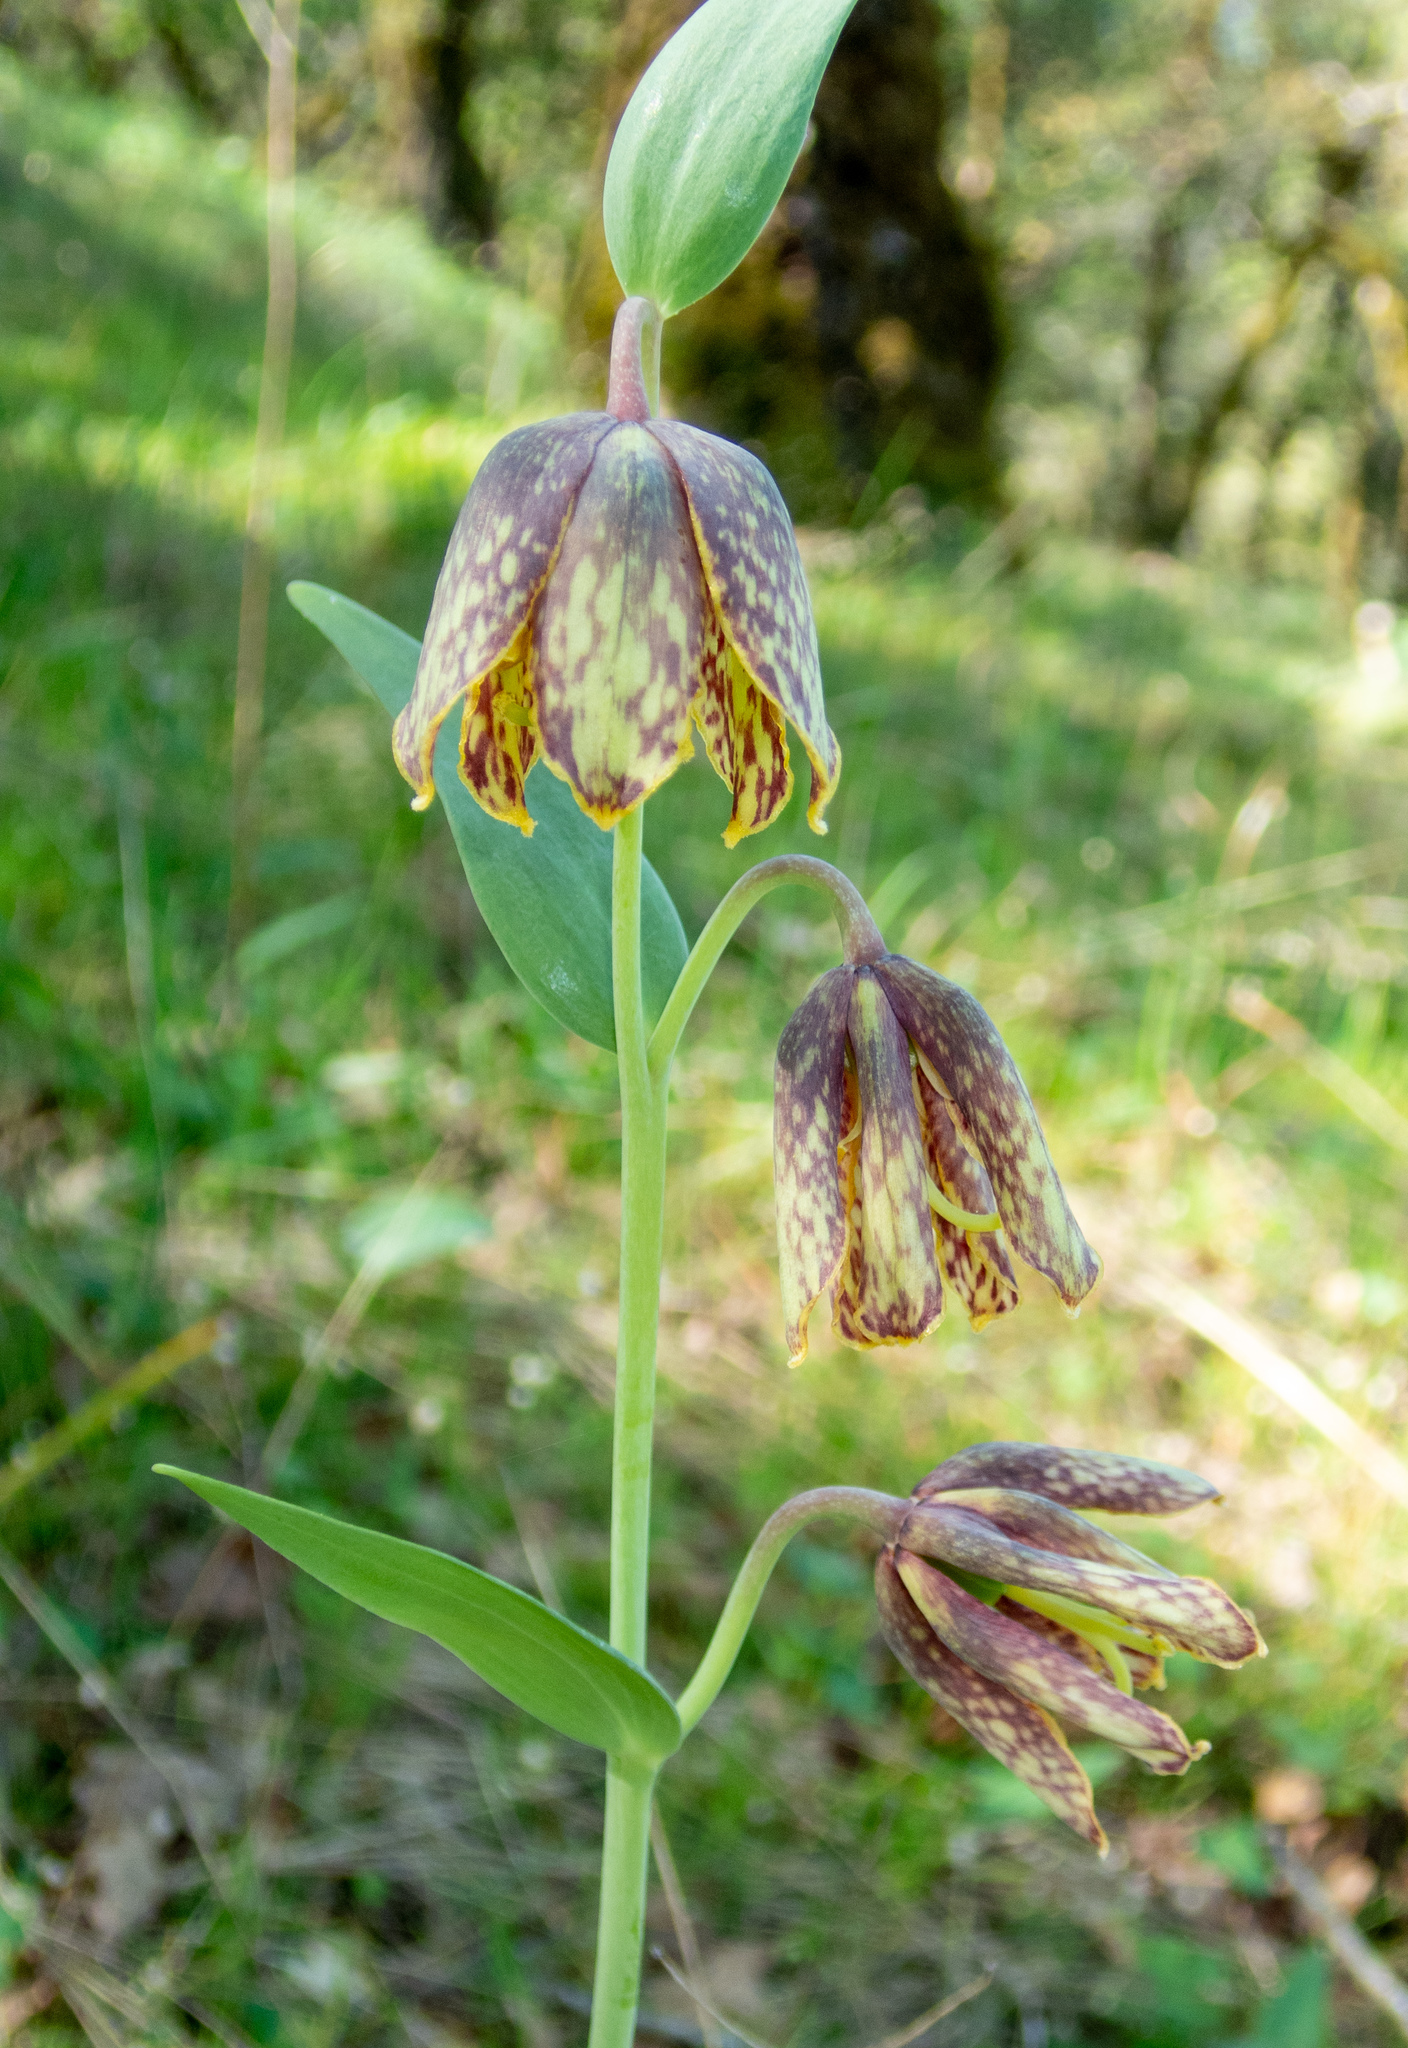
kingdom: Plantae
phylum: Tracheophyta
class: Liliopsida
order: Liliales
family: Liliaceae
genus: Fritillaria
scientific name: Fritillaria affinis
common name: Ojai fritillary
